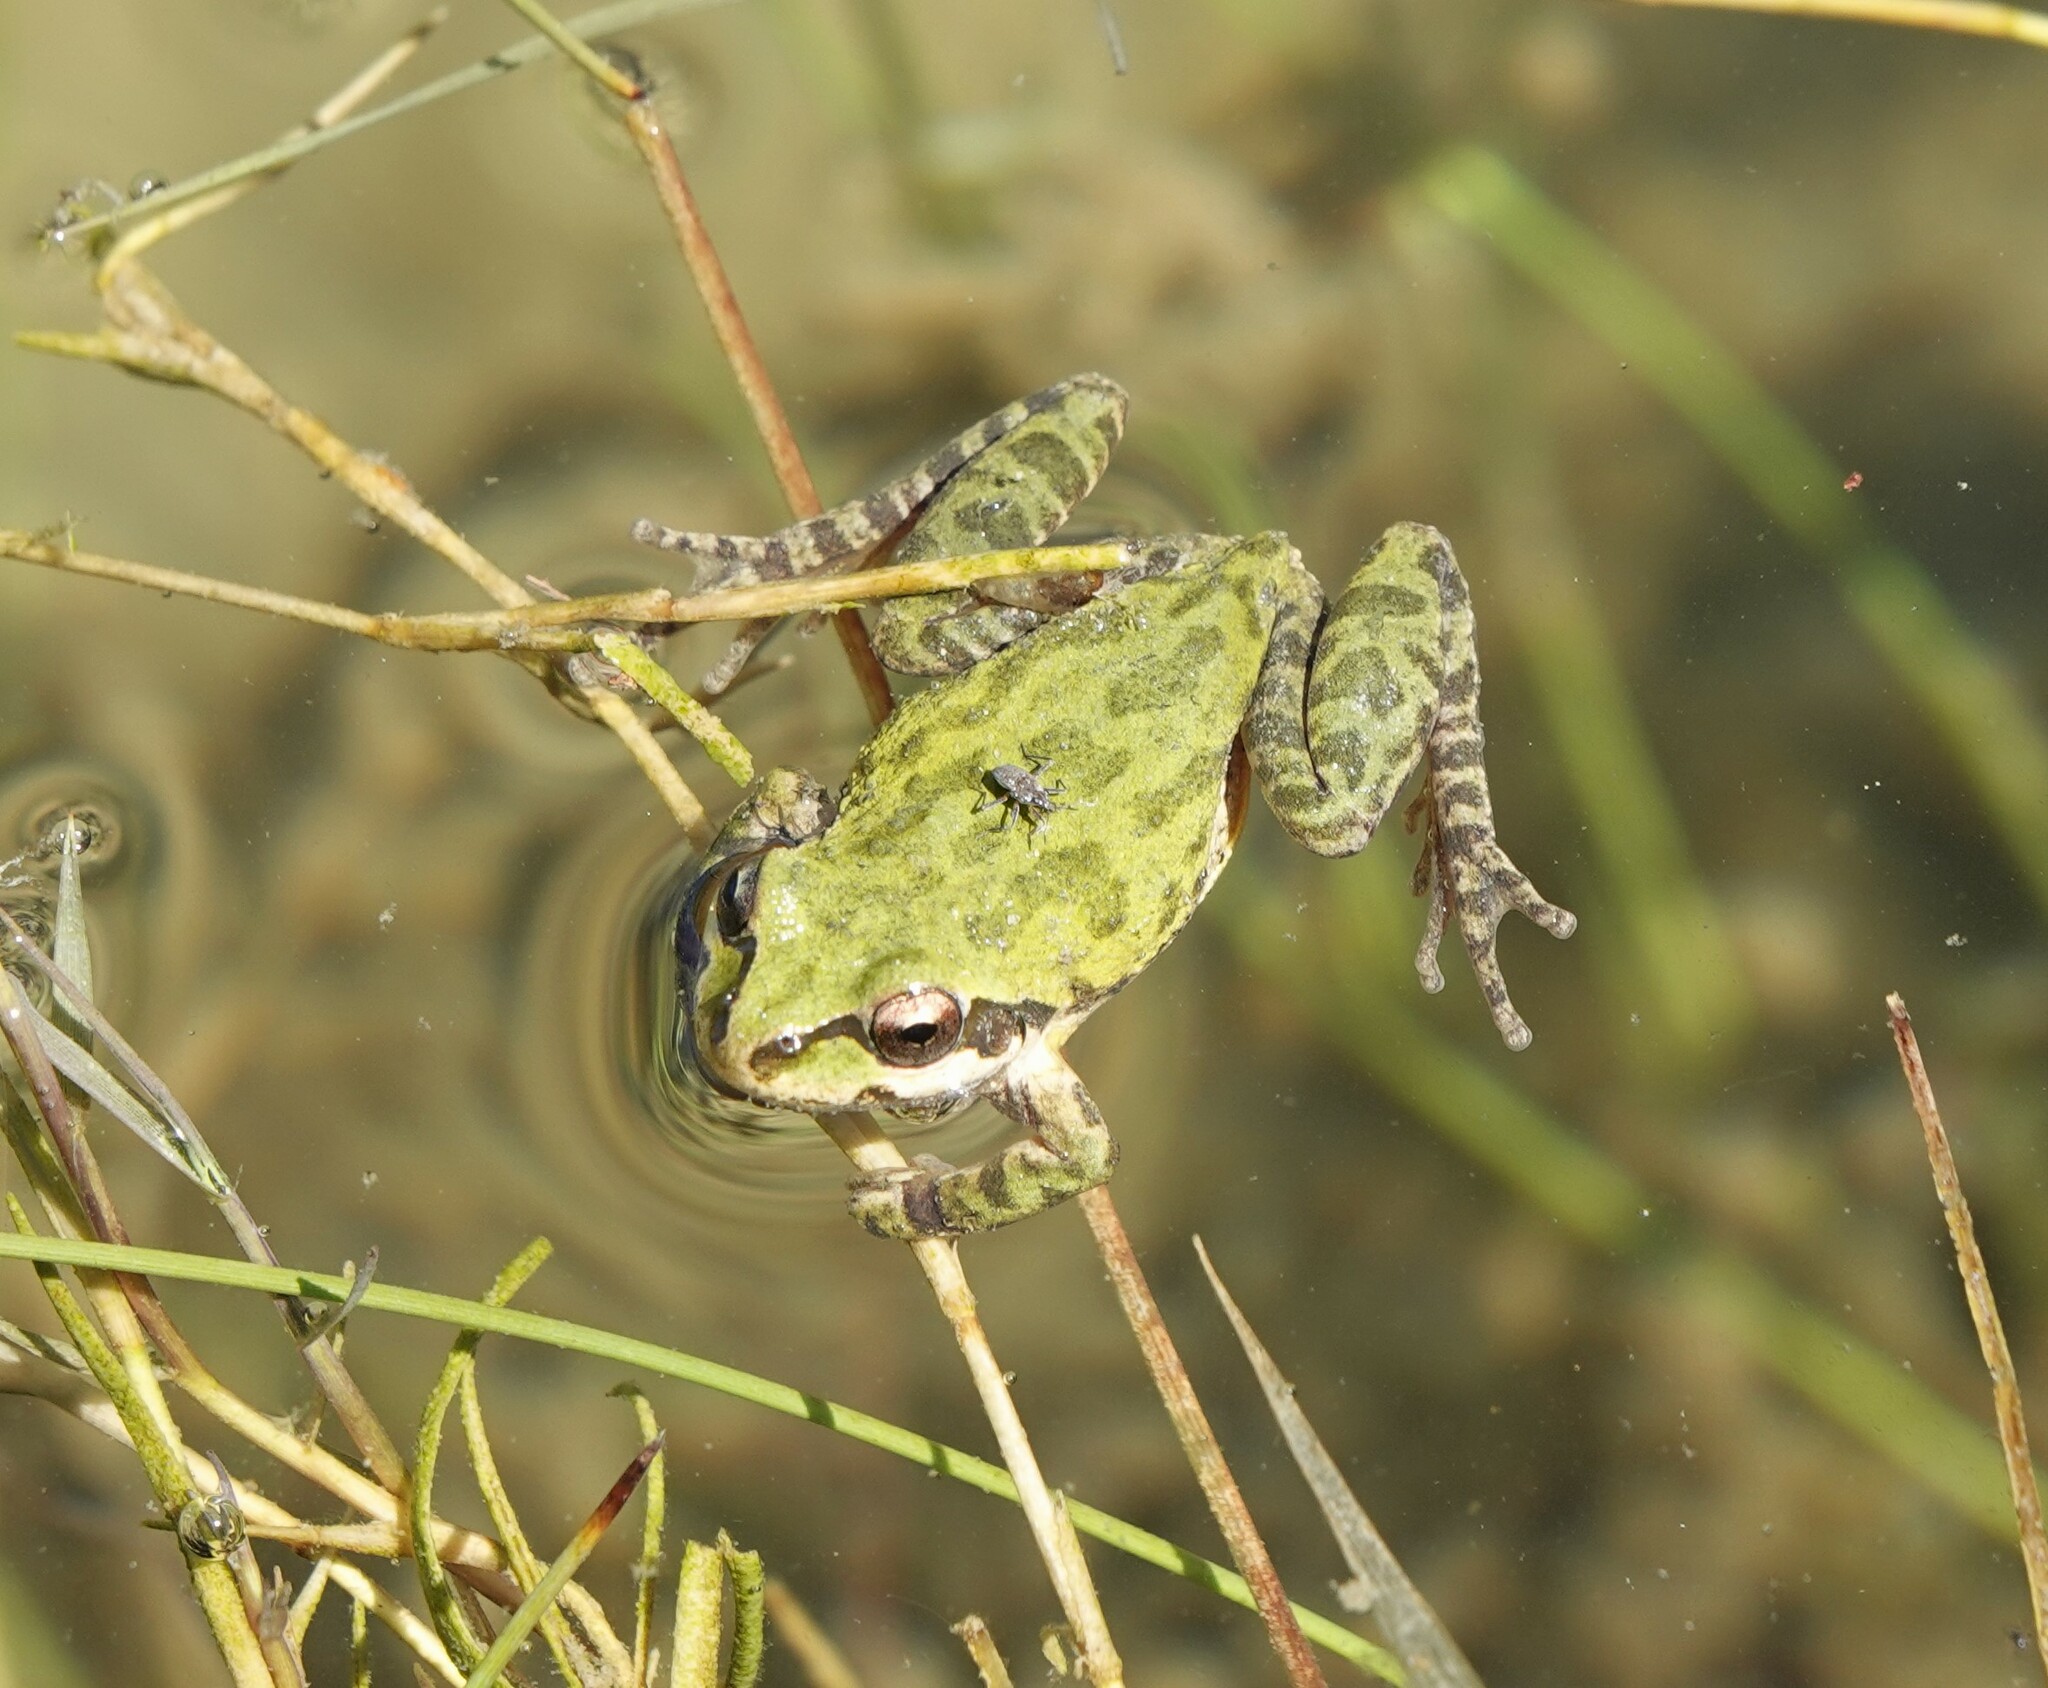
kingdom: Animalia
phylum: Chordata
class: Amphibia
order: Anura
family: Hylidae
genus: Pseudacris
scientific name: Pseudacris regilla
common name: Pacific chorus frog
